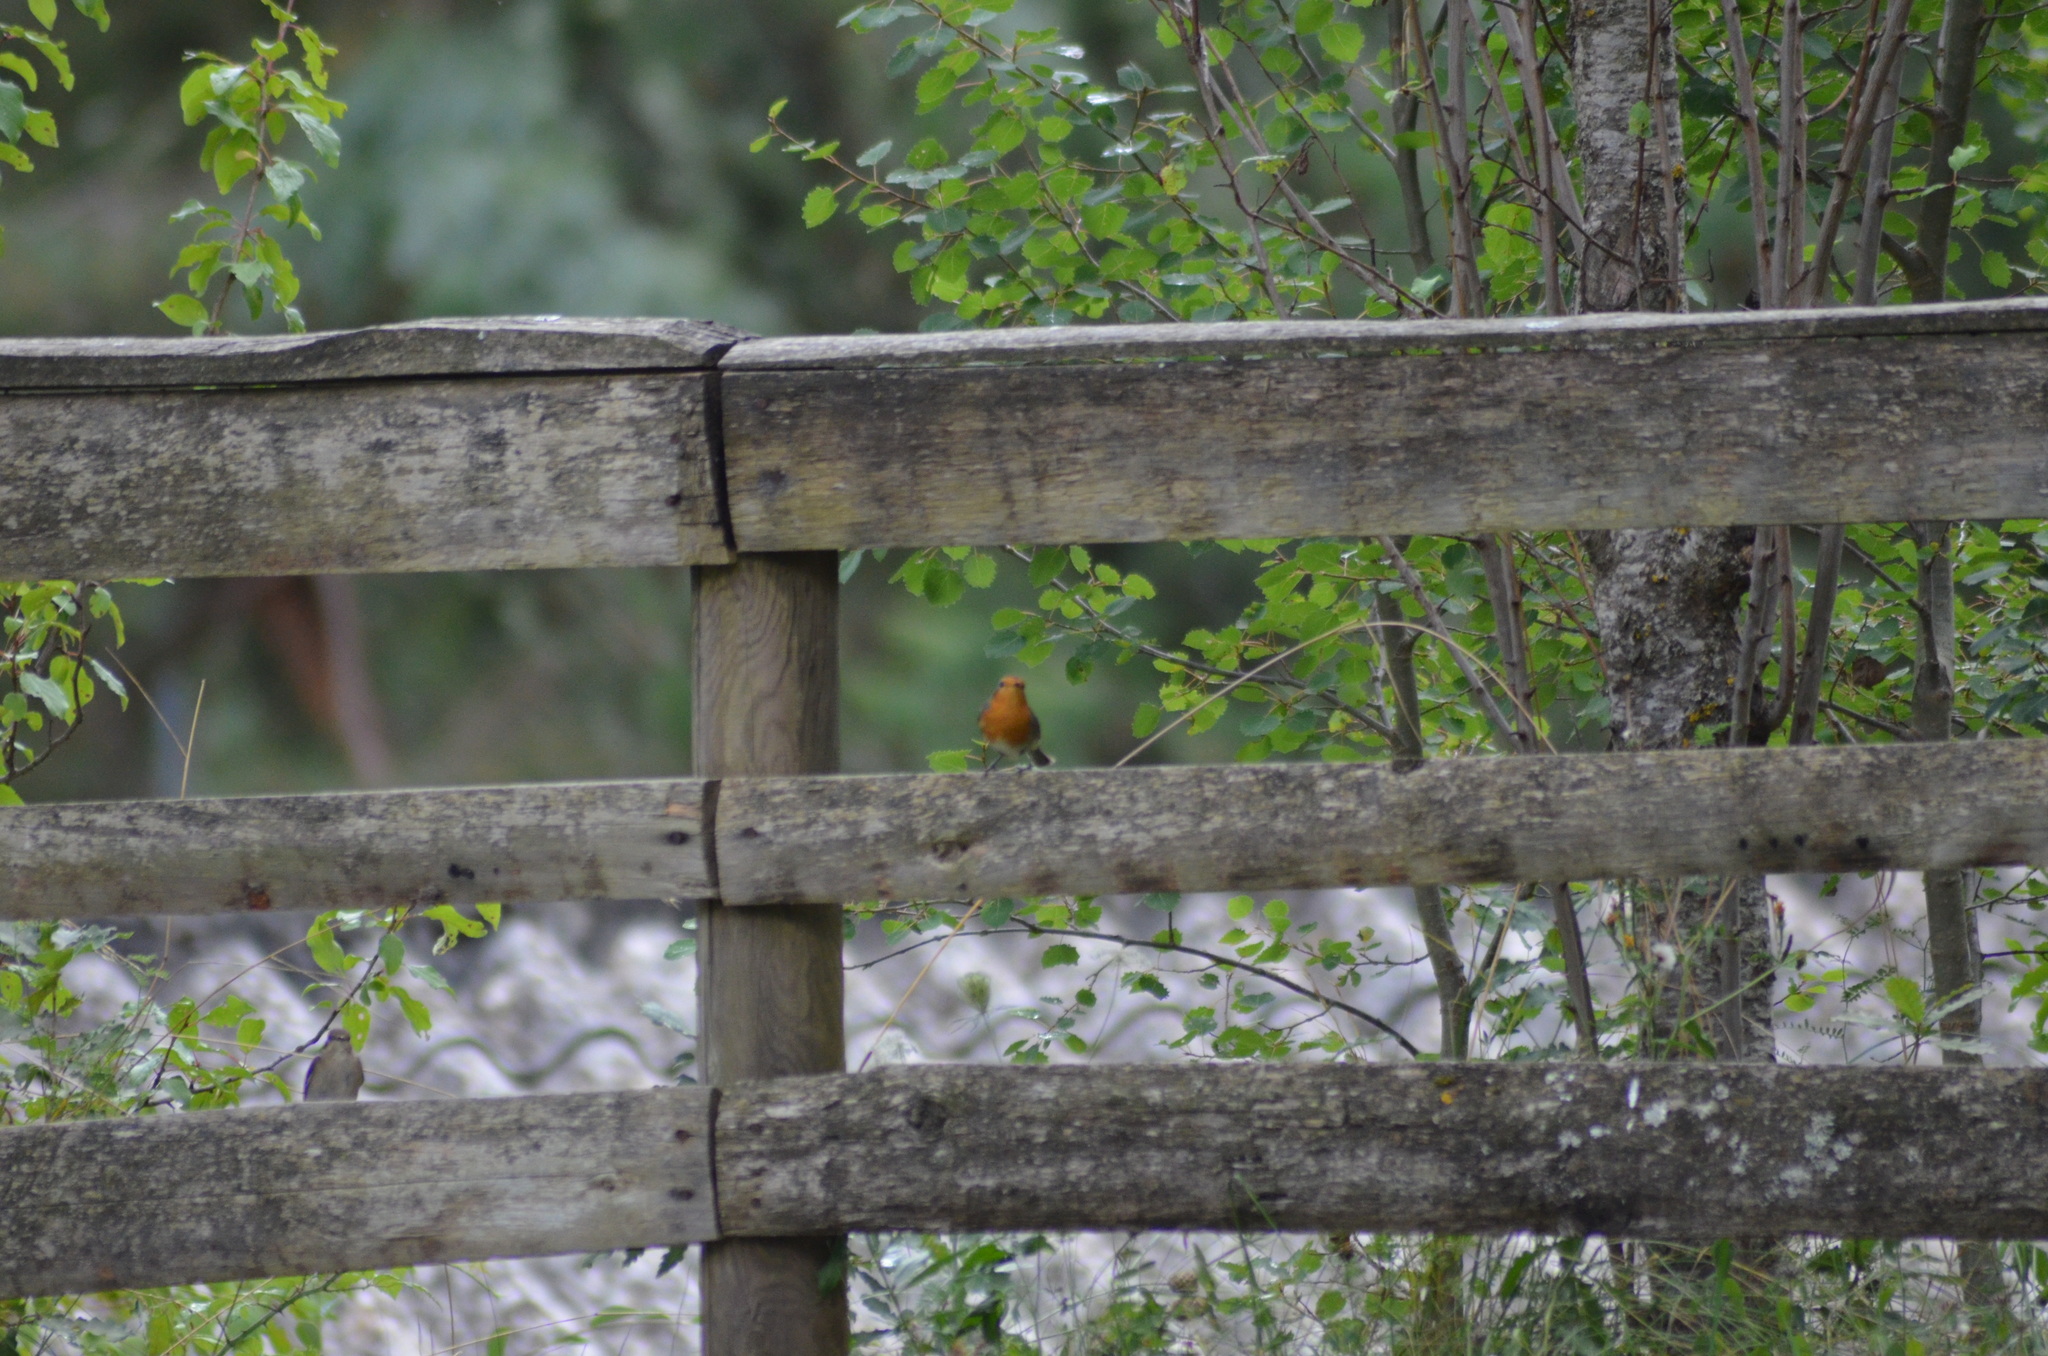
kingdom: Animalia
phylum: Chordata
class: Aves
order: Passeriformes
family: Muscicapidae
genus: Erithacus
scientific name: Erithacus rubecula
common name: European robin
